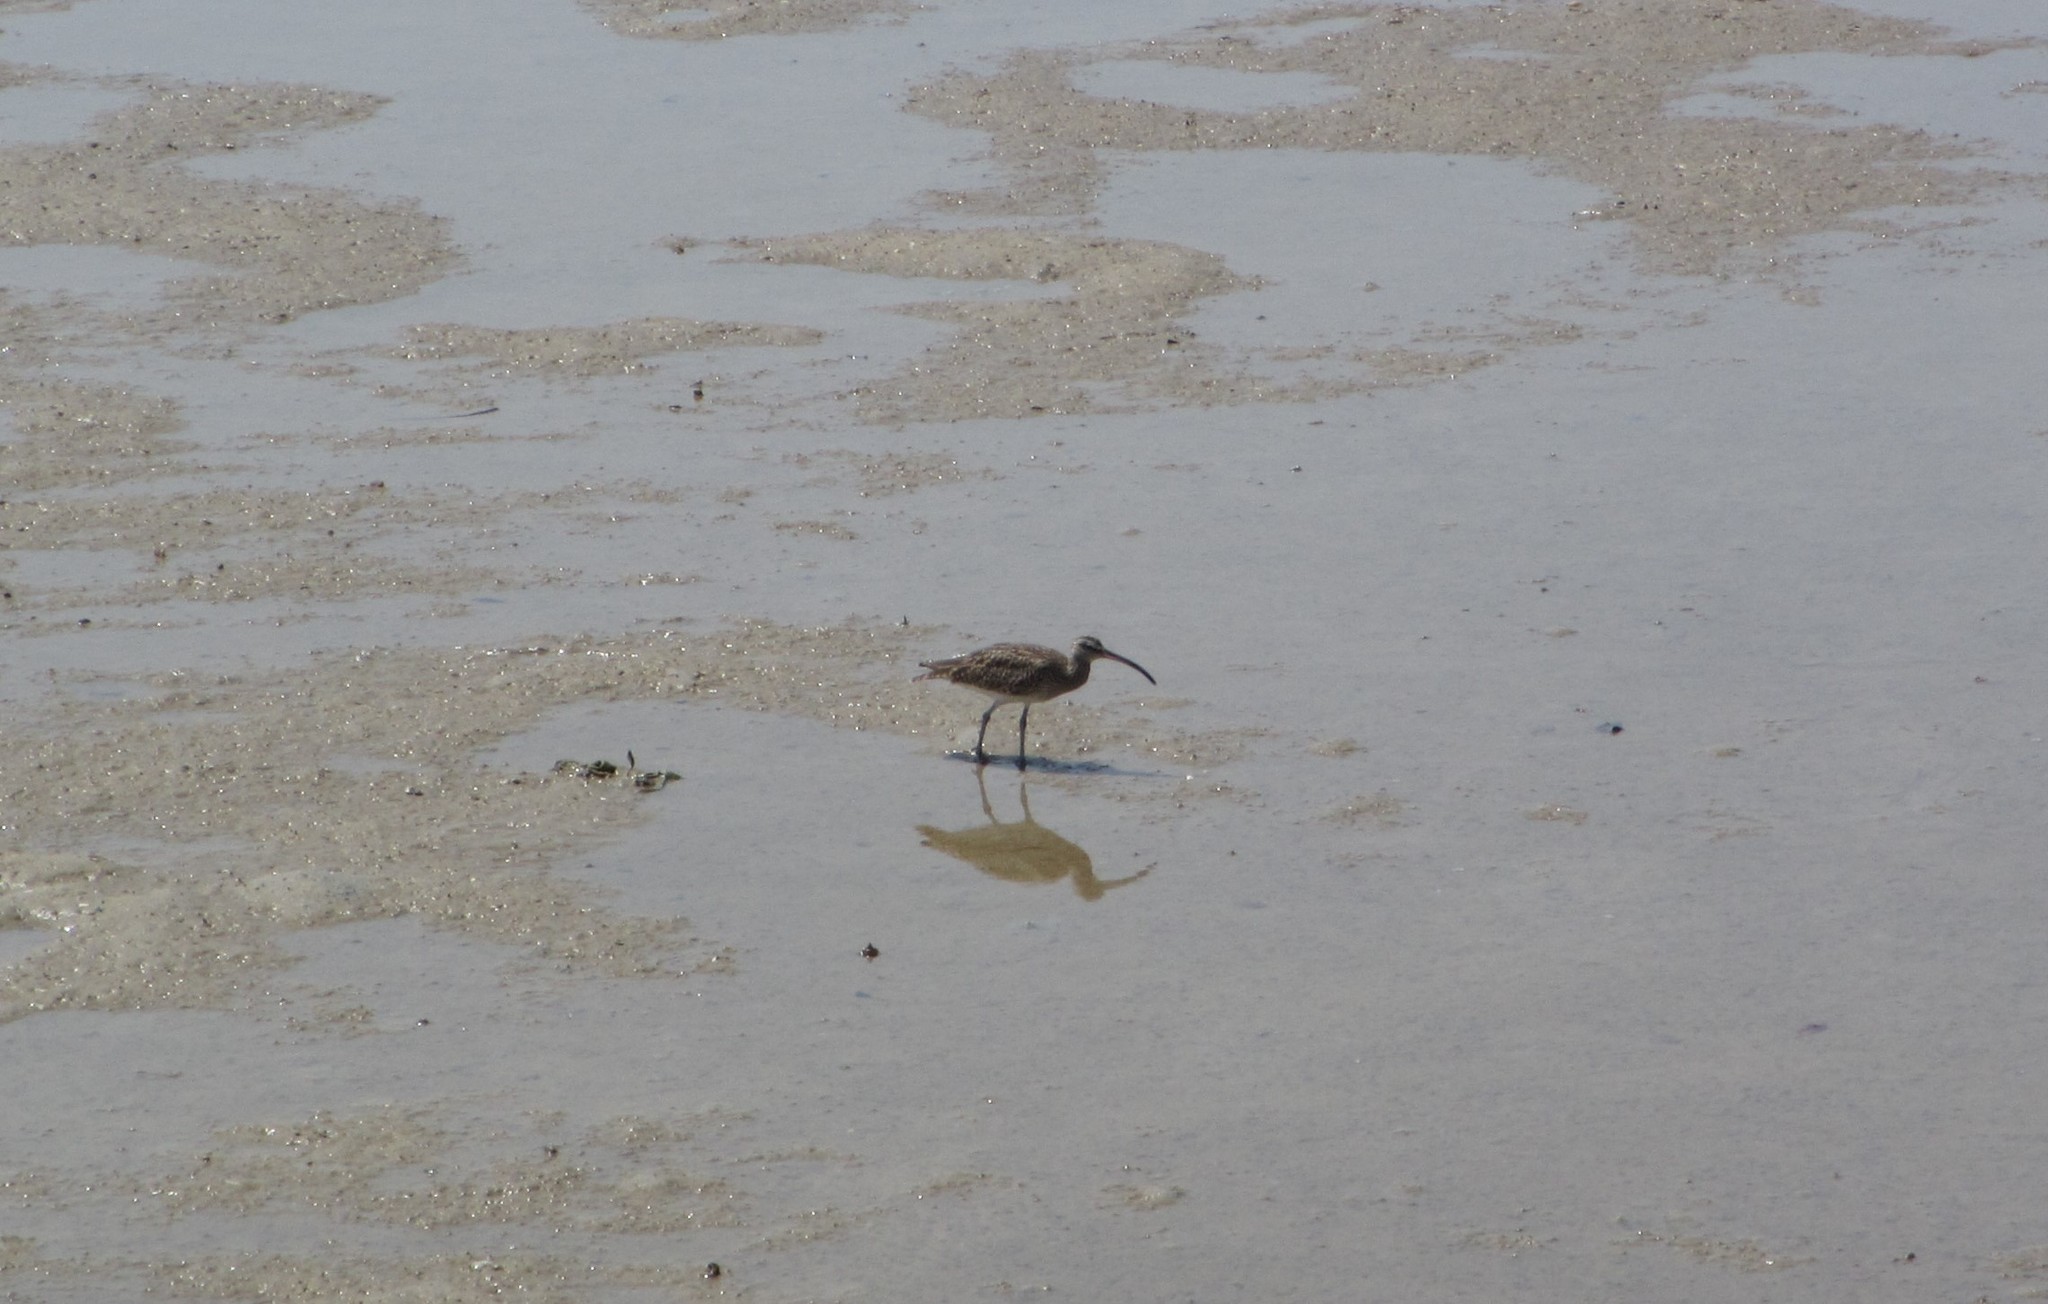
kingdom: Animalia
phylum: Chordata
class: Aves
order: Charadriiformes
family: Scolopacidae
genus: Numenius
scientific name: Numenius phaeopus
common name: Whimbrel
